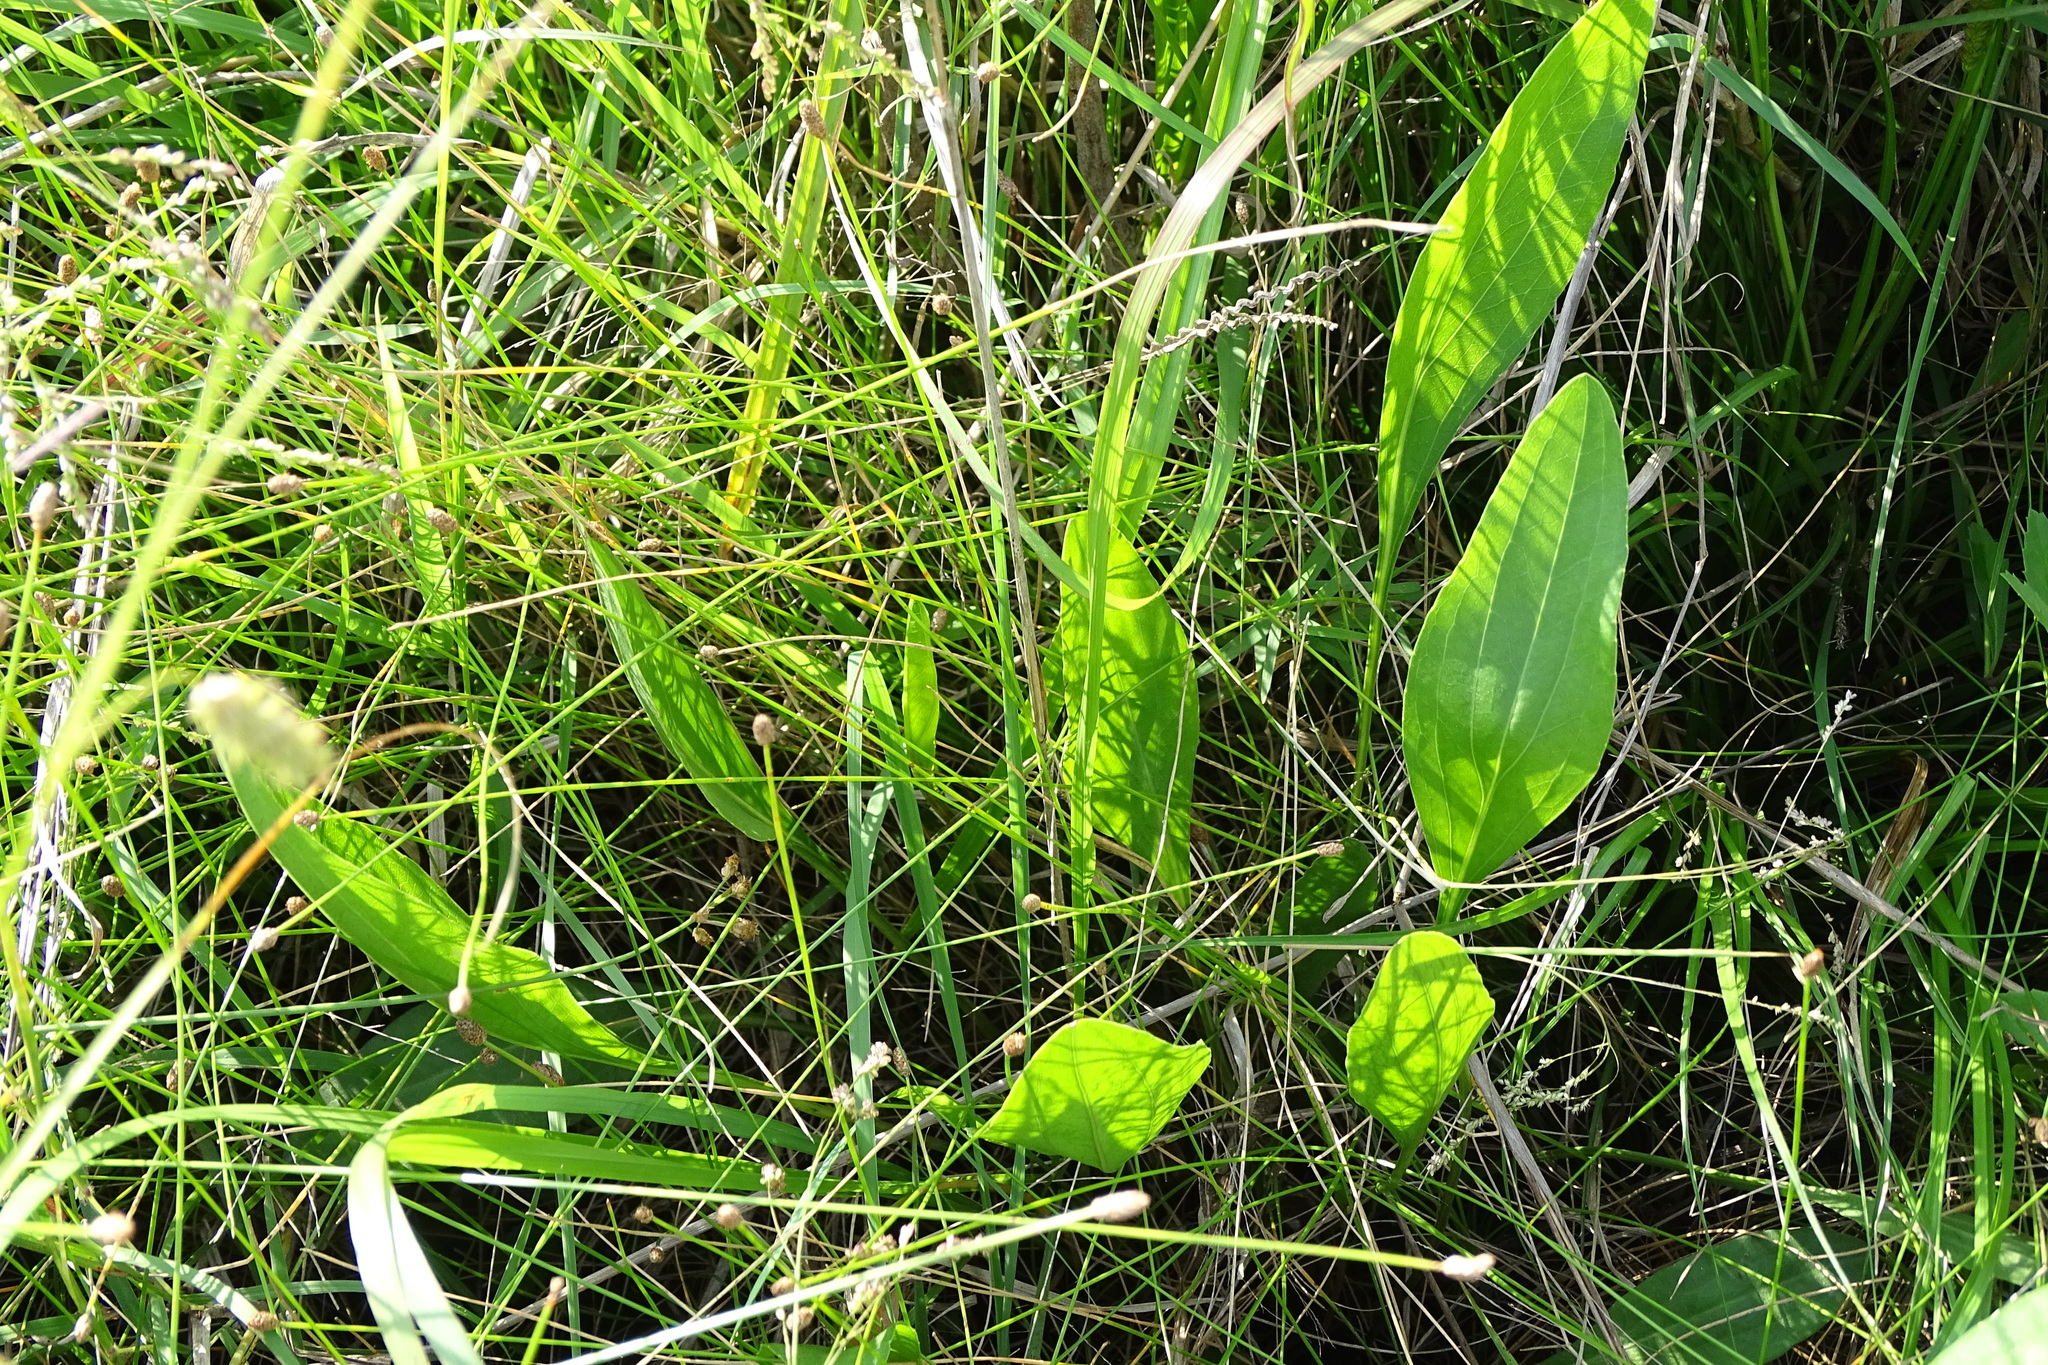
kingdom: Plantae
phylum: Tracheophyta
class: Magnoliopsida
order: Asterales
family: Asteraceae
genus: Rudbeckia
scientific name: Rudbeckia texana
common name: Texas coneflower
